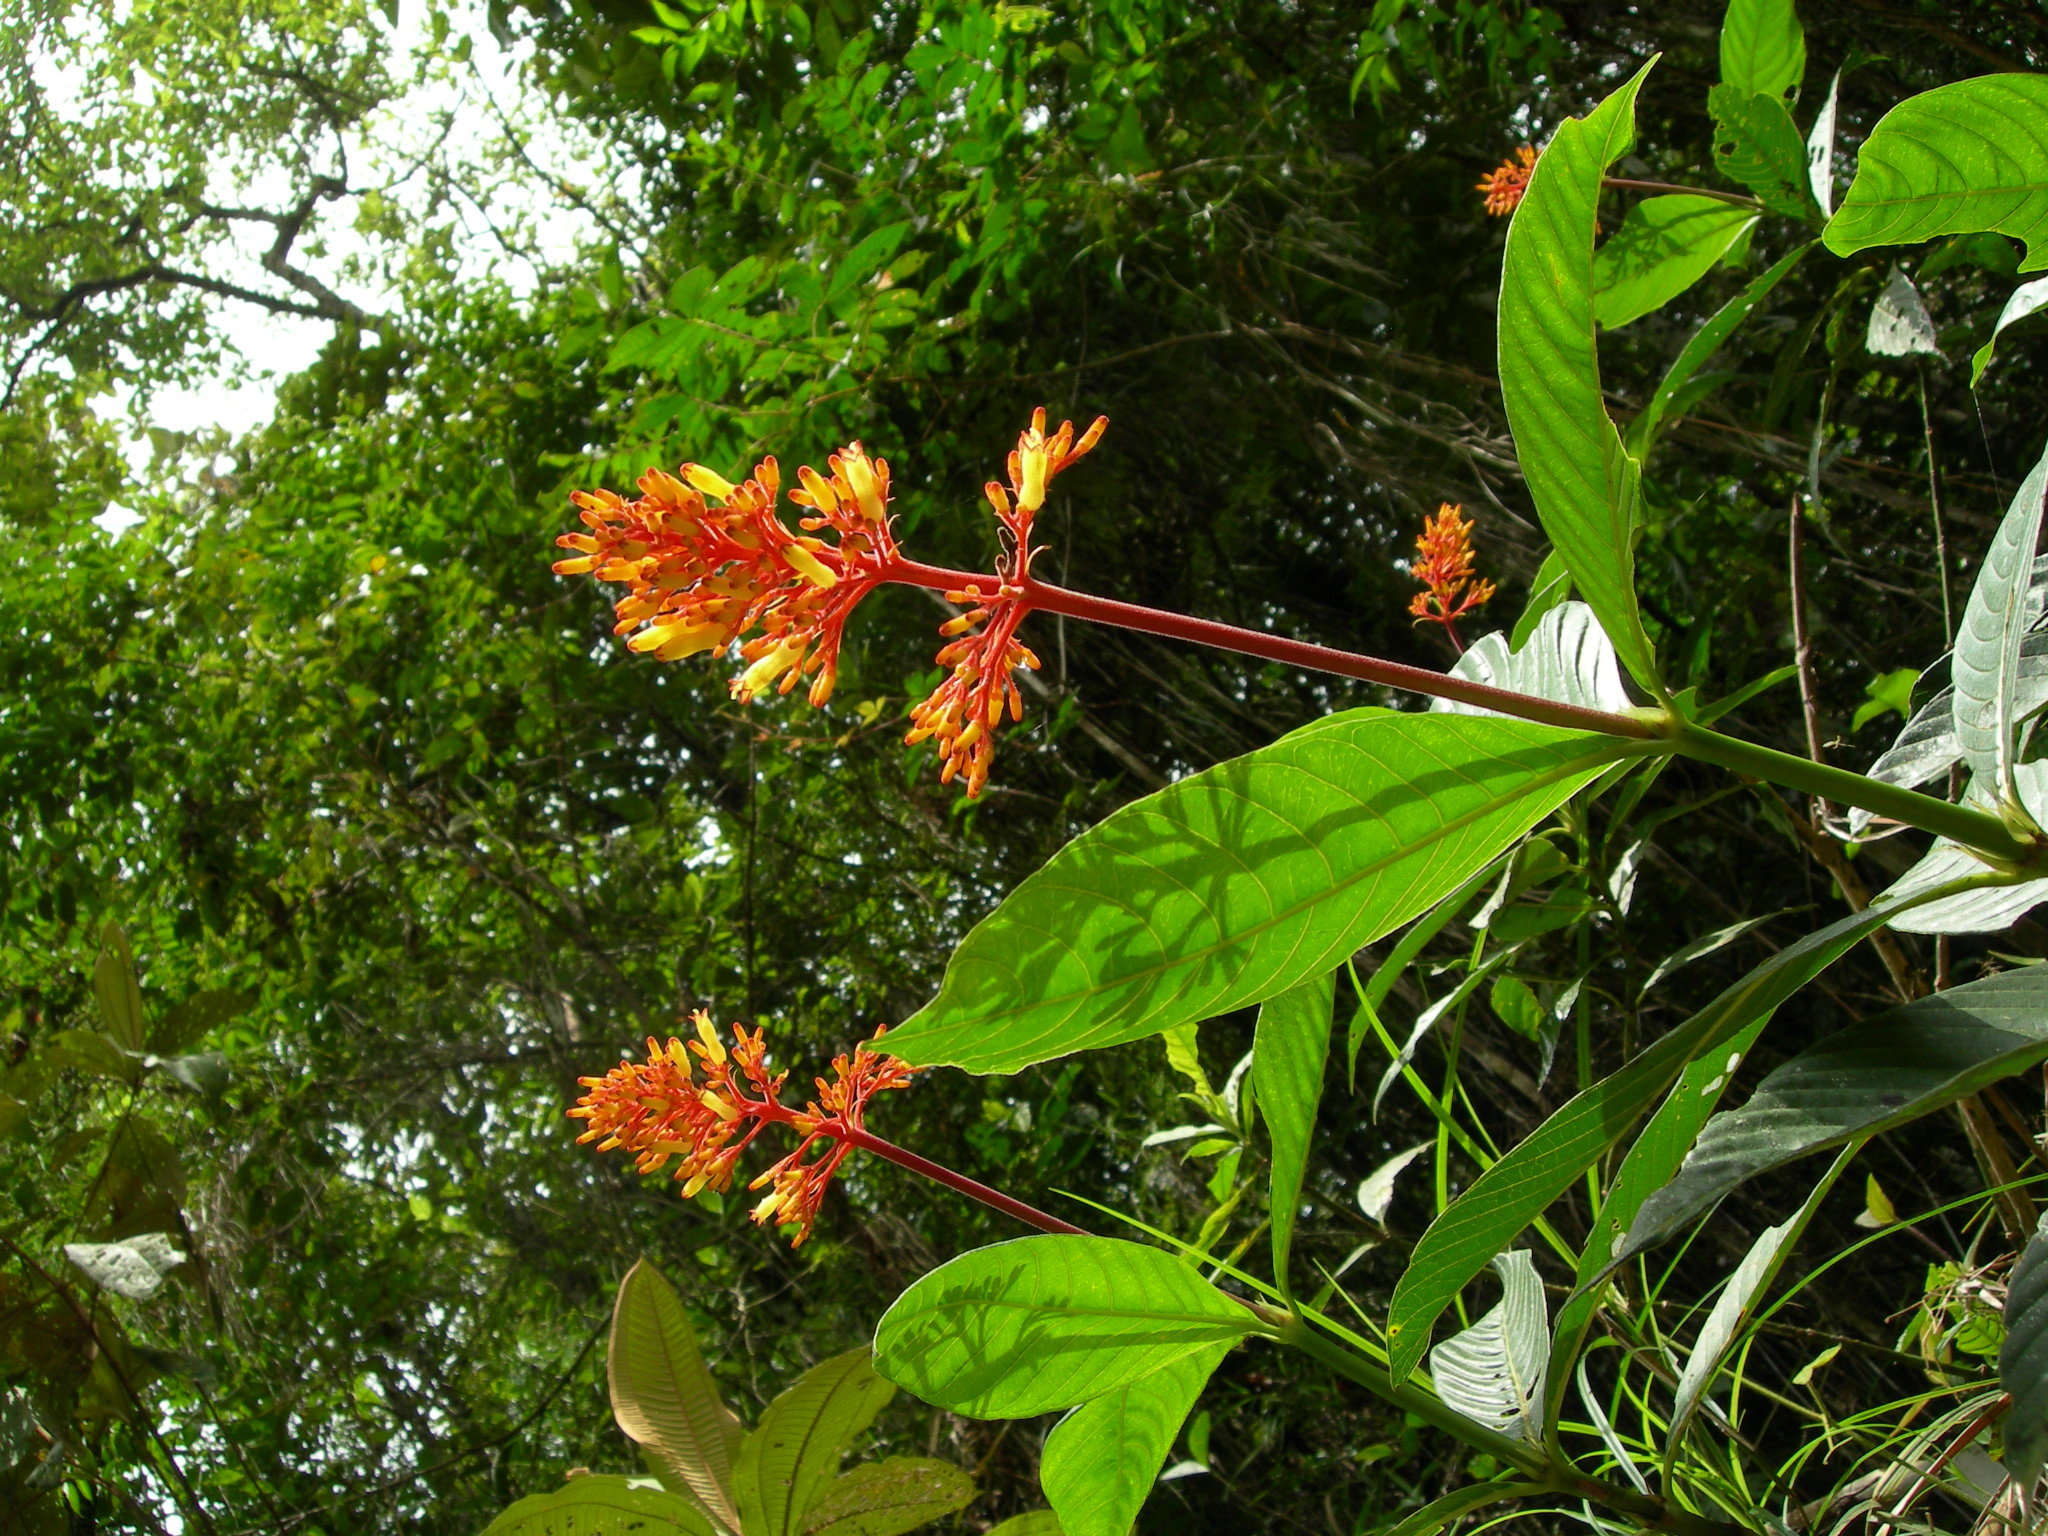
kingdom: Plantae
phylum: Tracheophyta
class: Magnoliopsida
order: Gentianales
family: Rubiaceae
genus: Palicourea
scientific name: Palicourea triphylla
